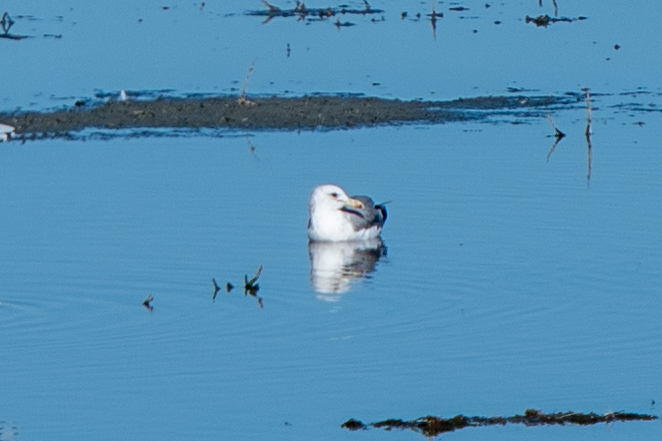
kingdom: Animalia
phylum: Chordata
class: Aves
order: Charadriiformes
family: Laridae
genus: Larus
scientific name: Larus californicus
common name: California gull
